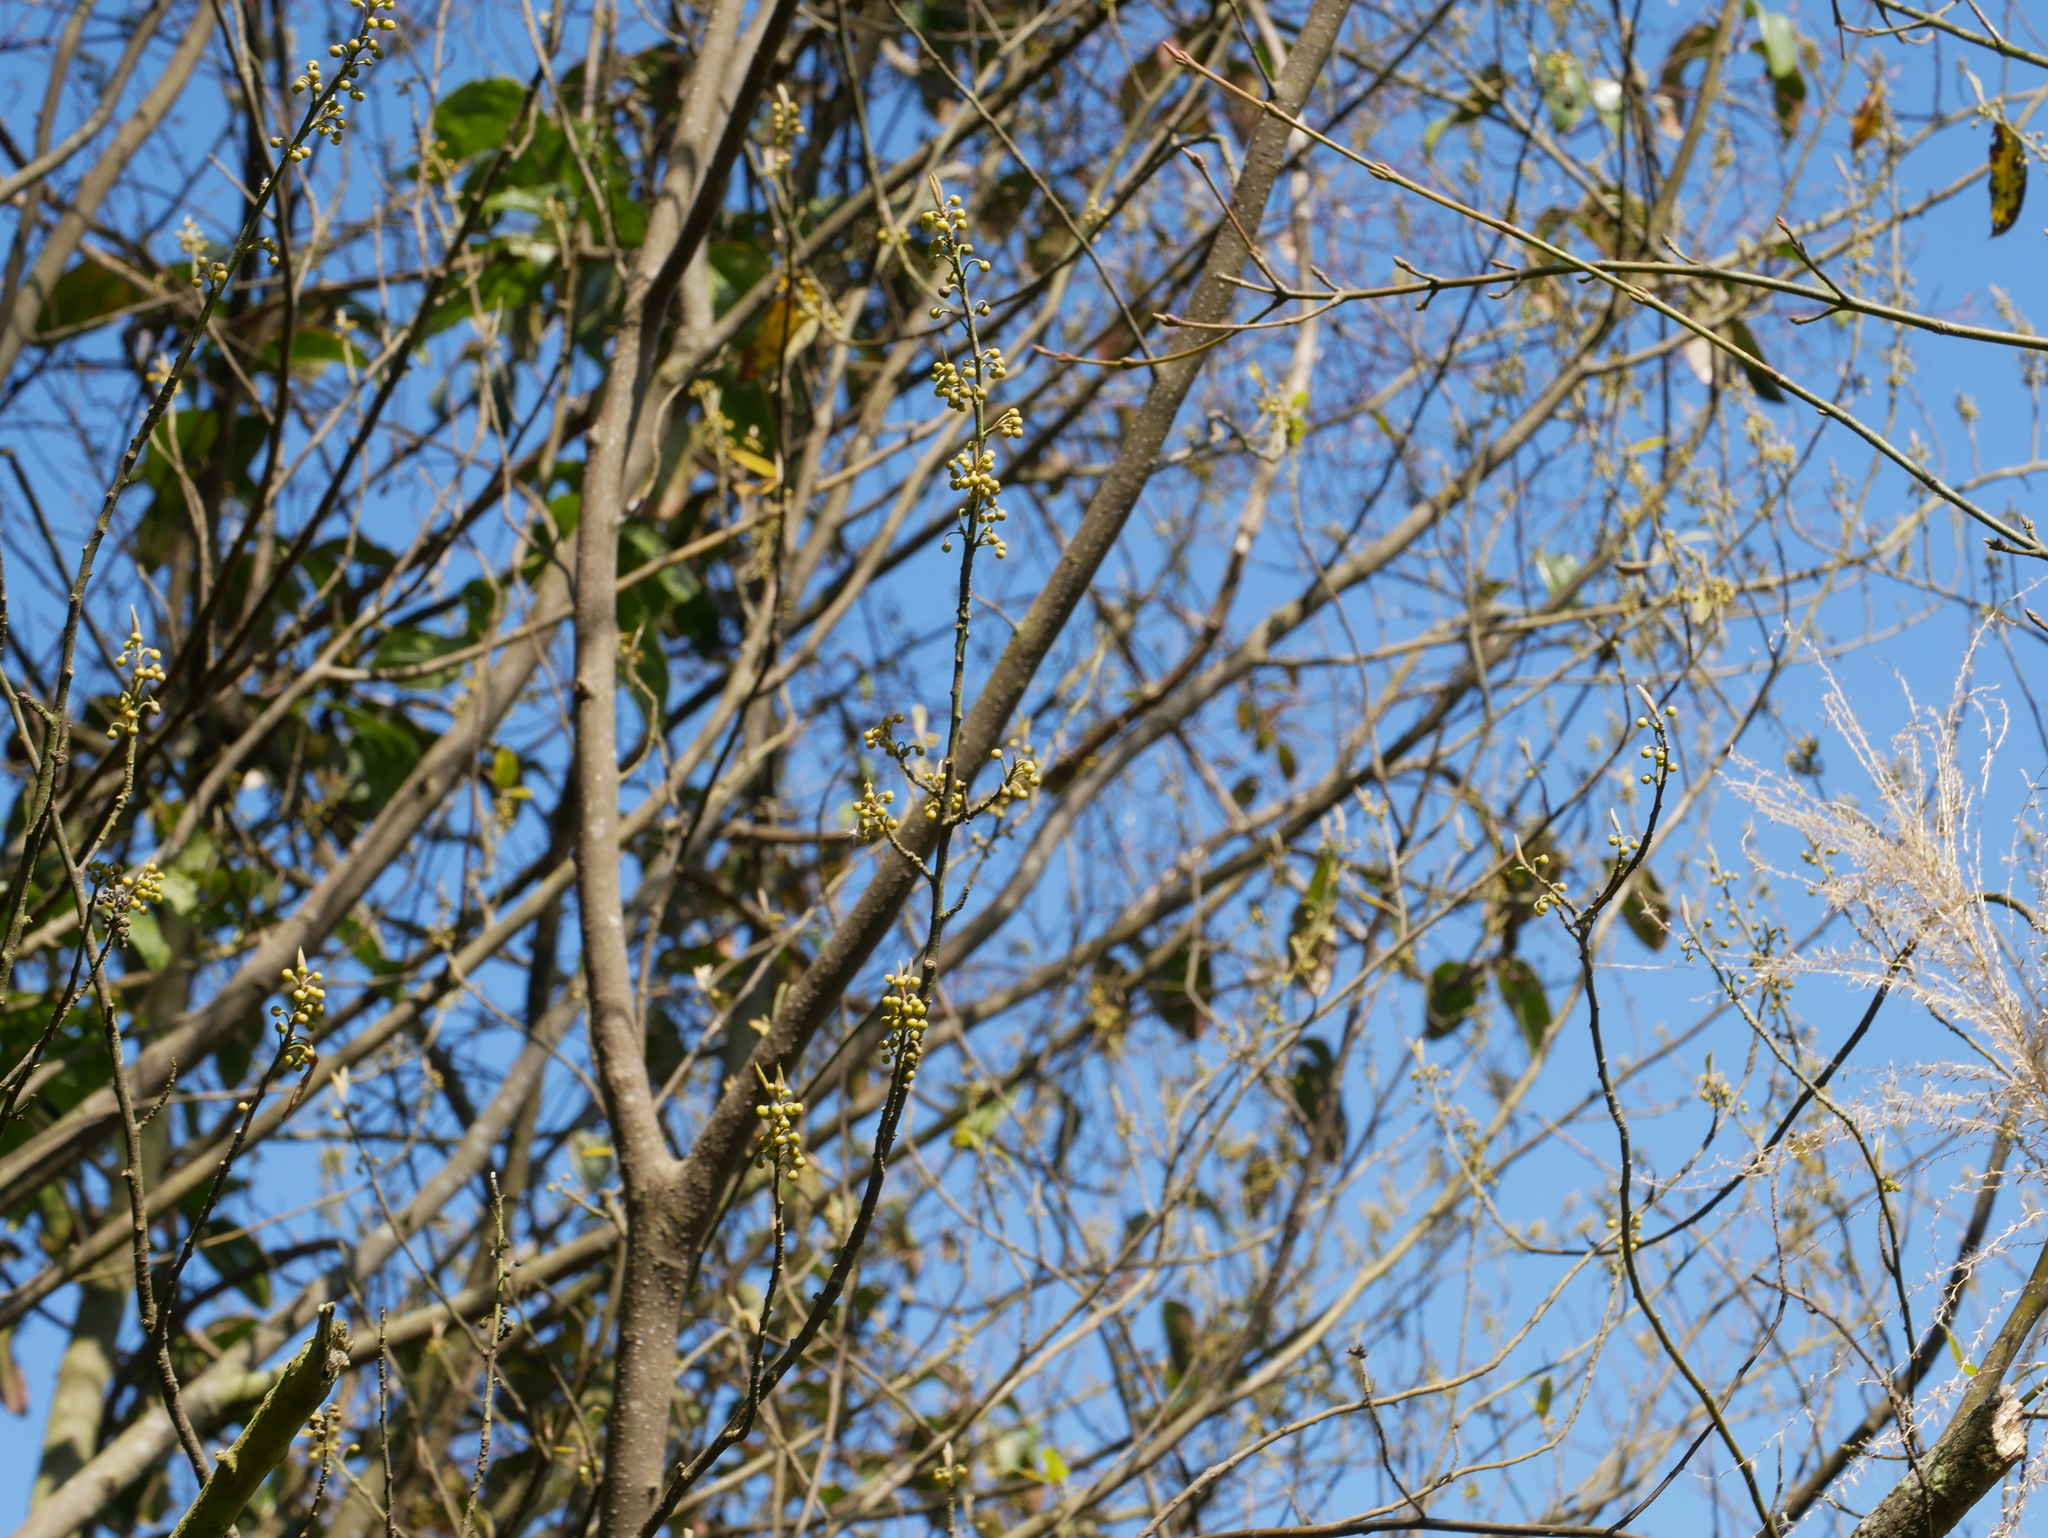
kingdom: Plantae
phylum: Tracheophyta
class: Magnoliopsida
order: Laurales
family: Lauraceae
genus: Litsea
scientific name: Litsea cubeba
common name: Mountain-pepper
